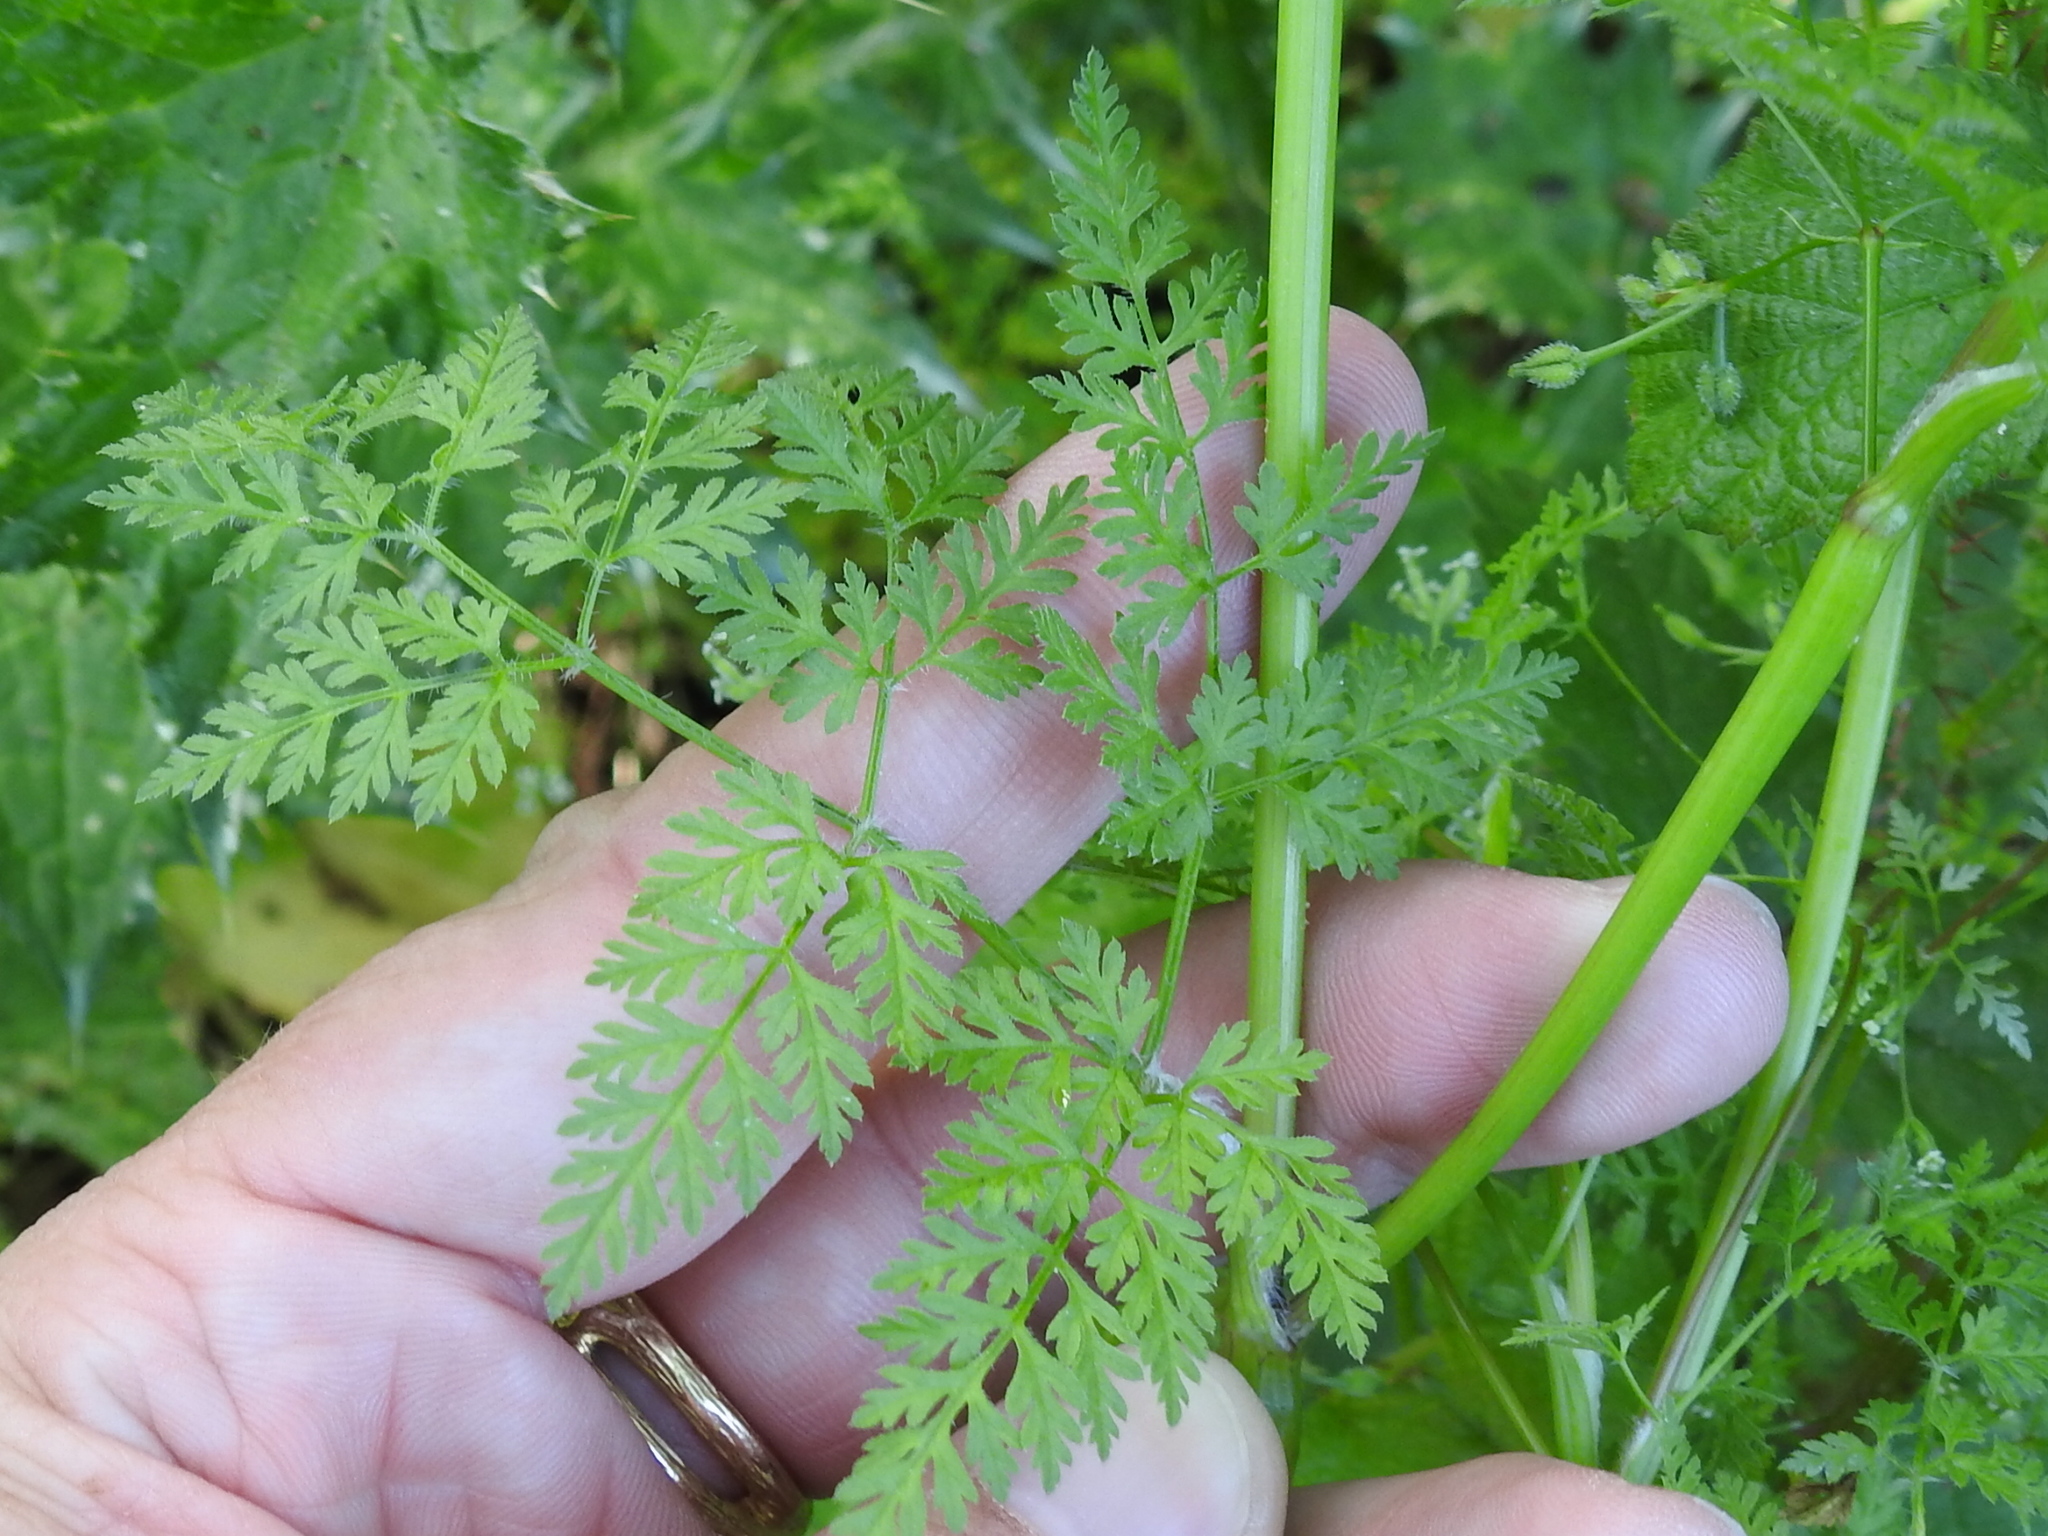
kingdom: Plantae
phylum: Tracheophyta
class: Magnoliopsida
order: Apiales
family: Apiaceae
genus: Anthriscus
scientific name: Anthriscus caucalis
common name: Bur chervil
